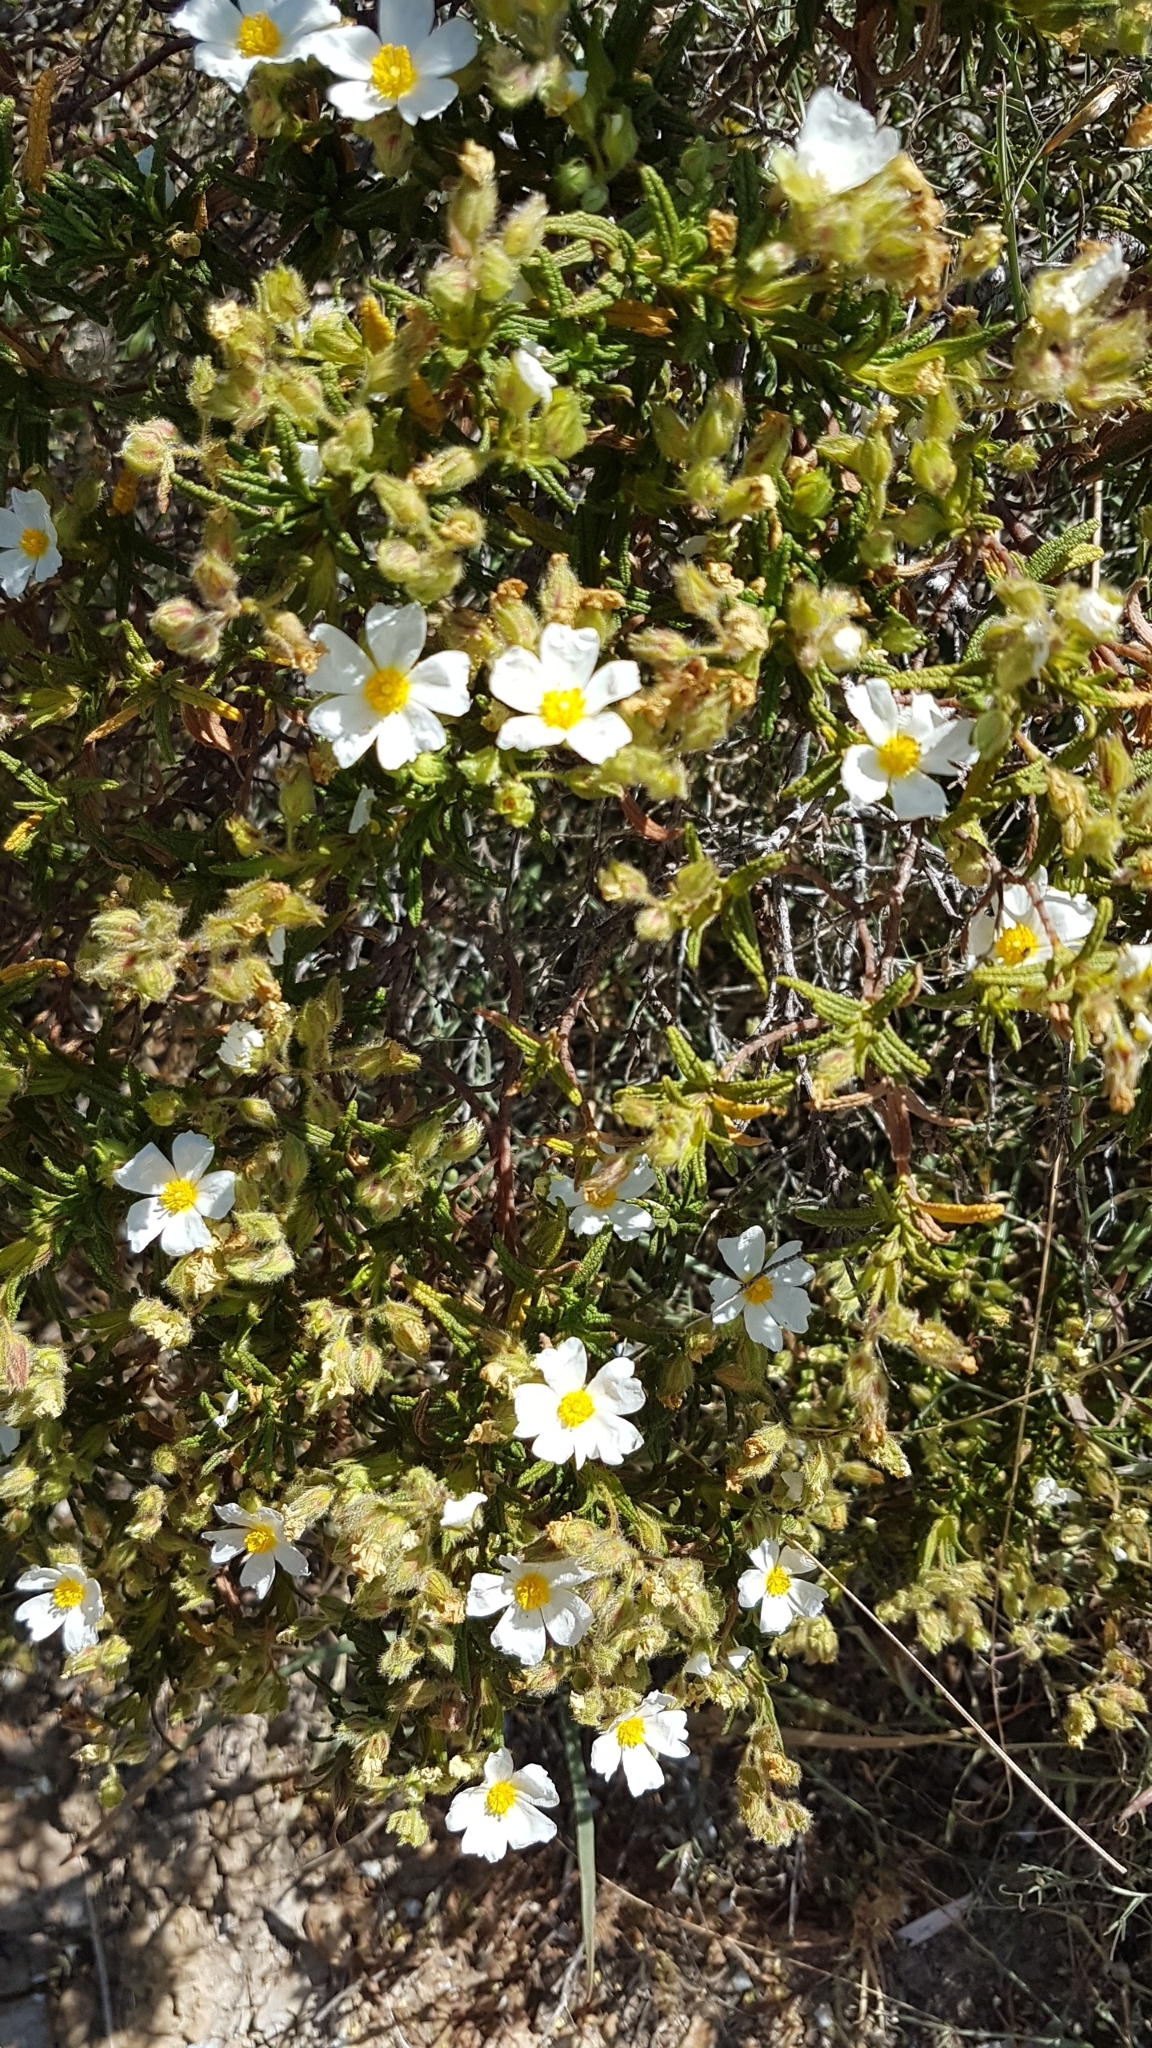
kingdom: Plantae
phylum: Tracheophyta
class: Magnoliopsida
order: Malvales
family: Cistaceae
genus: Cistus
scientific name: Cistus monspeliensis
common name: Montpelier cistus
